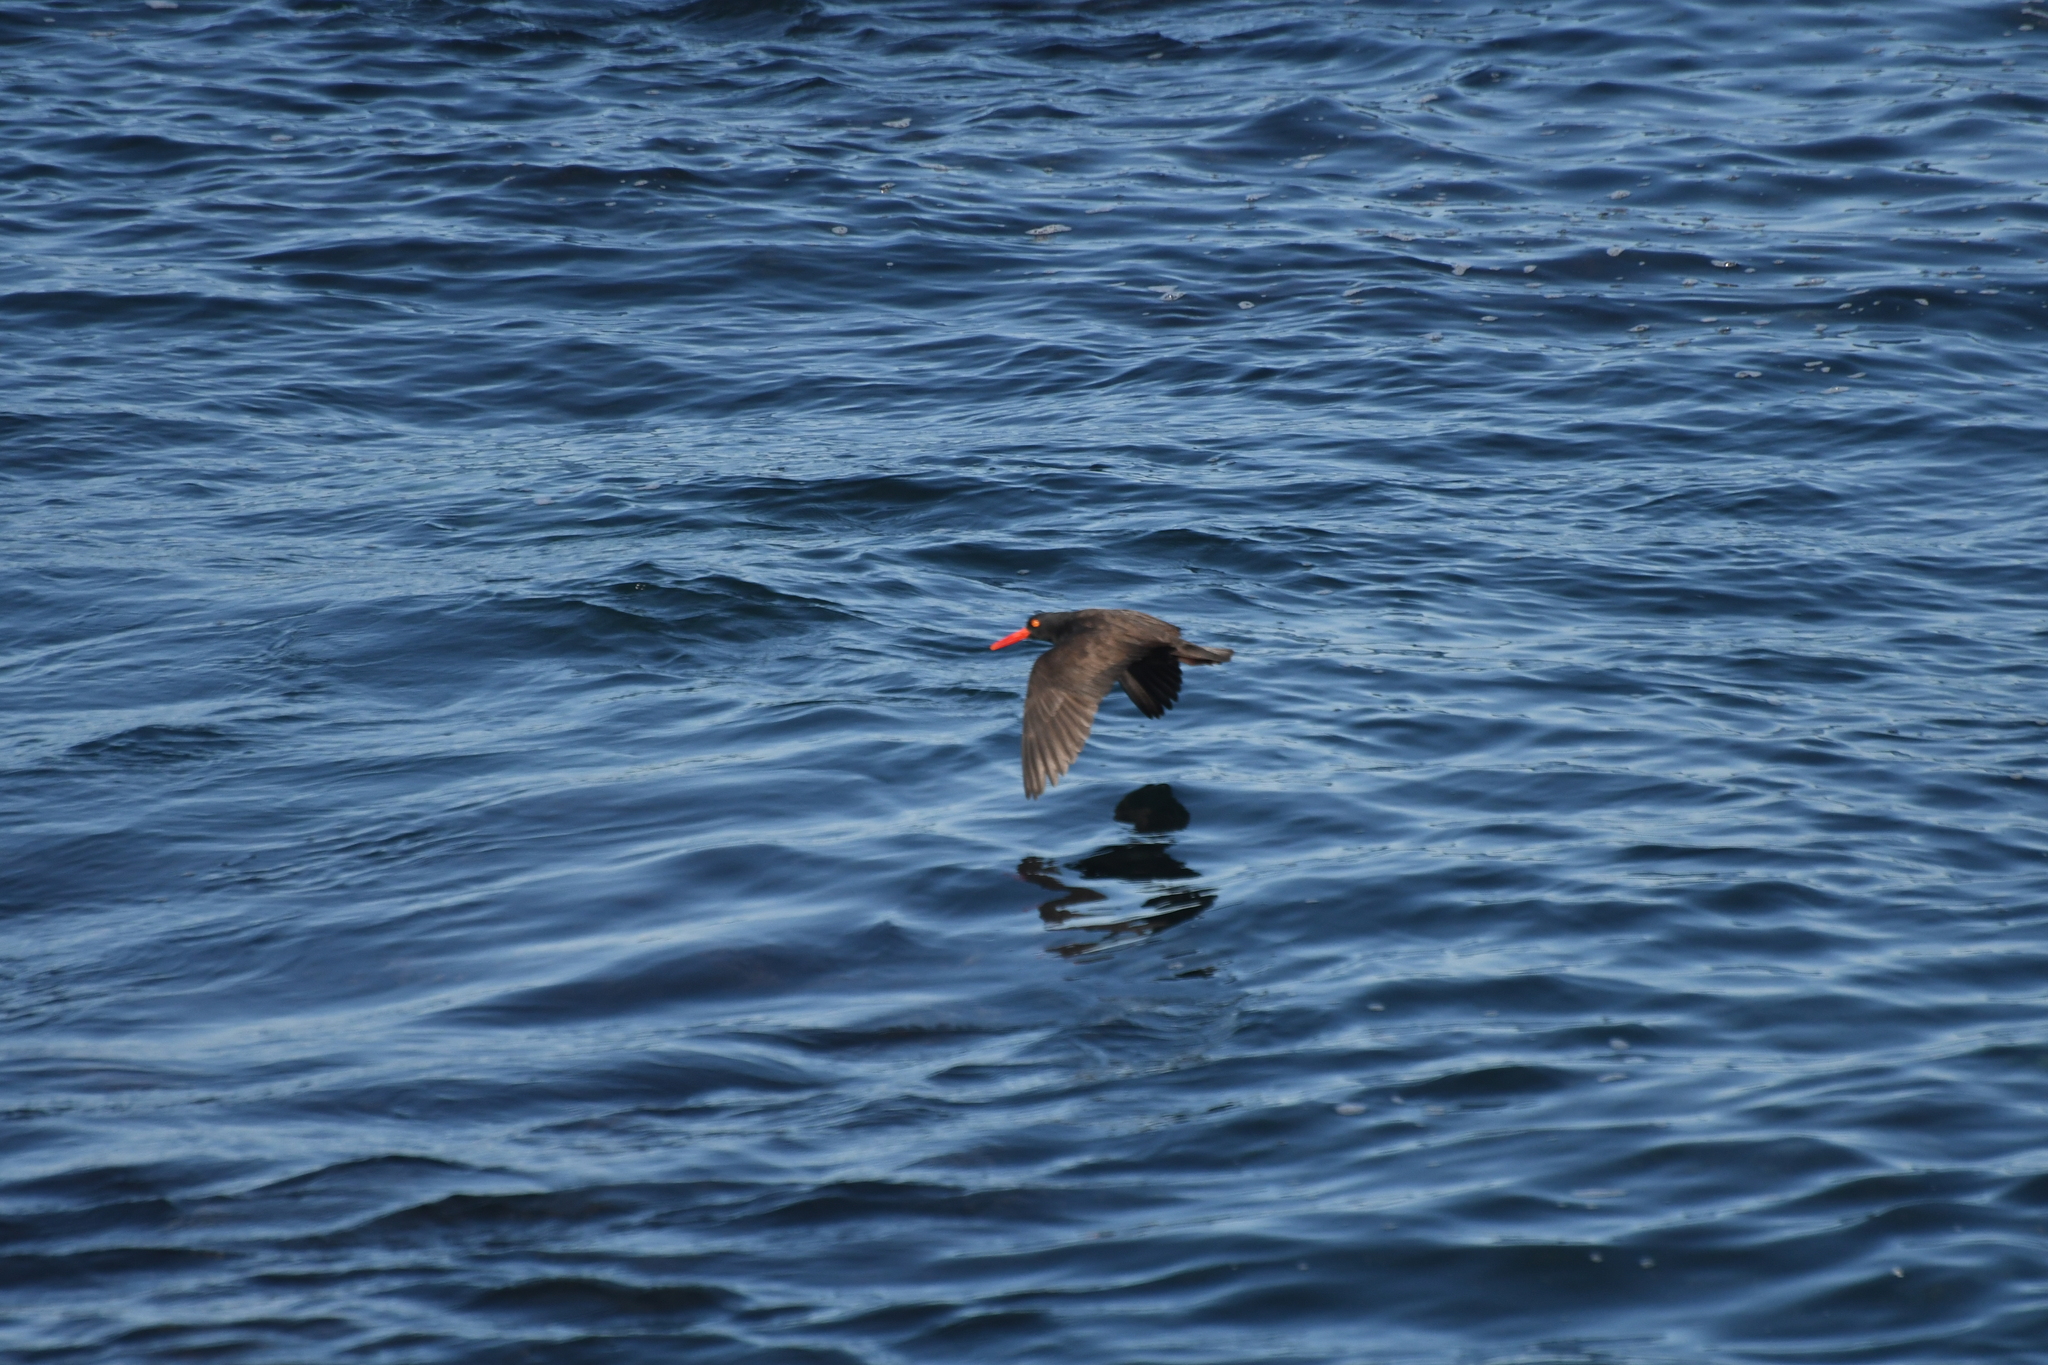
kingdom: Animalia
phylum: Chordata
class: Aves
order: Charadriiformes
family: Haematopodidae
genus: Haematopus
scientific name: Haematopus bachmani
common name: Black oystercatcher
